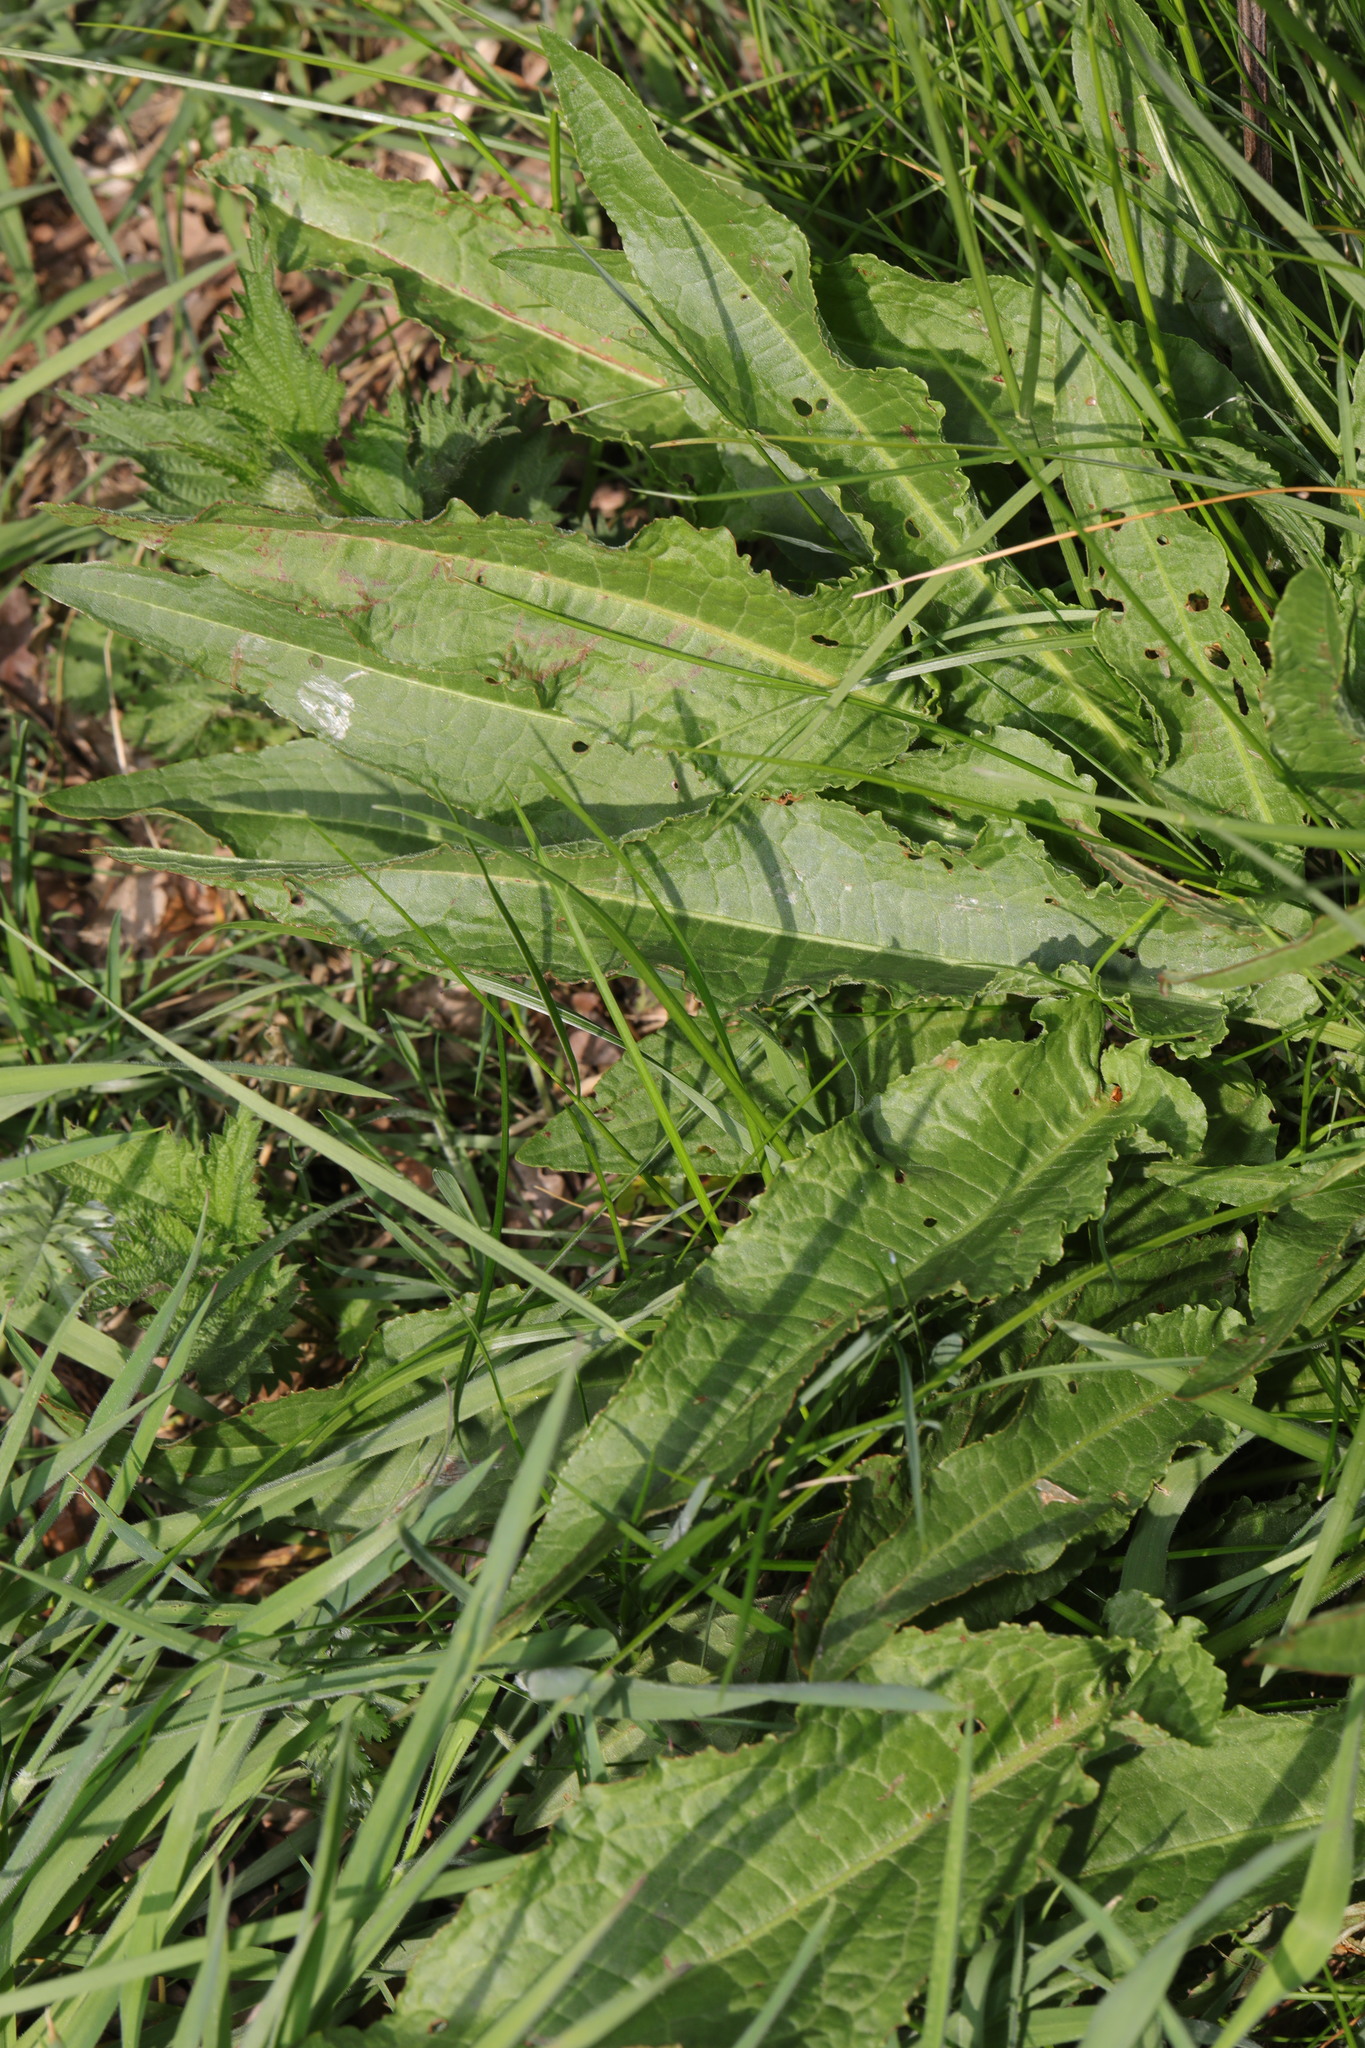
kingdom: Plantae
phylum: Tracheophyta
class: Magnoliopsida
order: Caryophyllales
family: Polygonaceae
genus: Rumex
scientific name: Rumex crispus
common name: Curled dock
